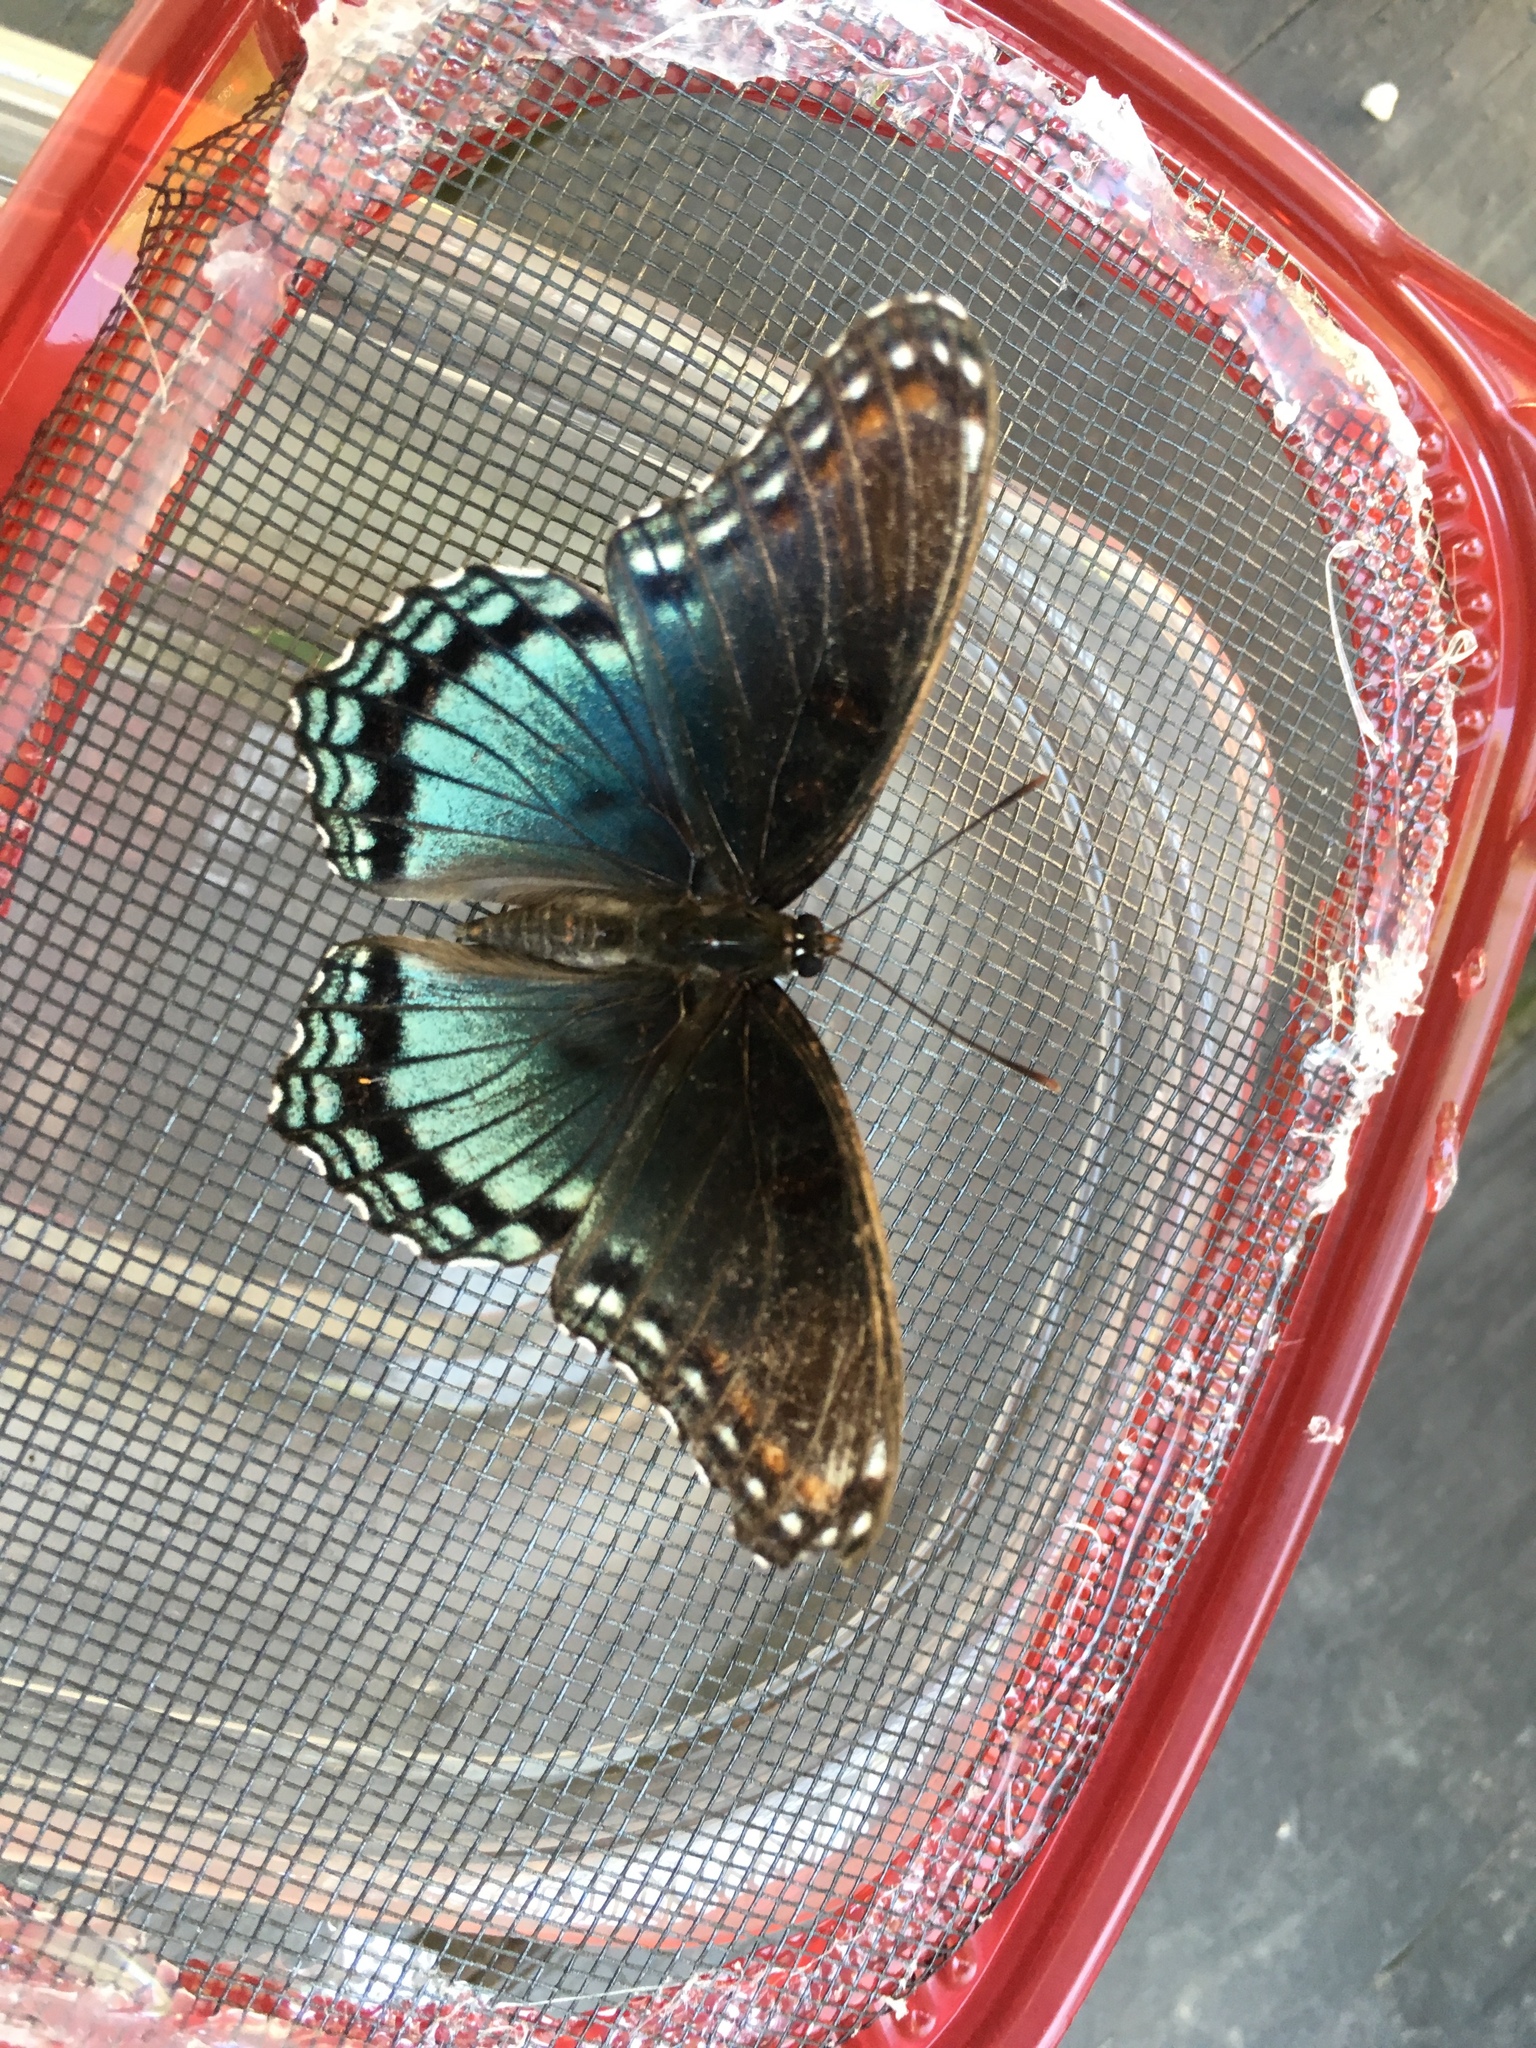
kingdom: Animalia
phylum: Arthropoda
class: Insecta
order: Lepidoptera
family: Nymphalidae
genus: Limenitis
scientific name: Limenitis astyanax
